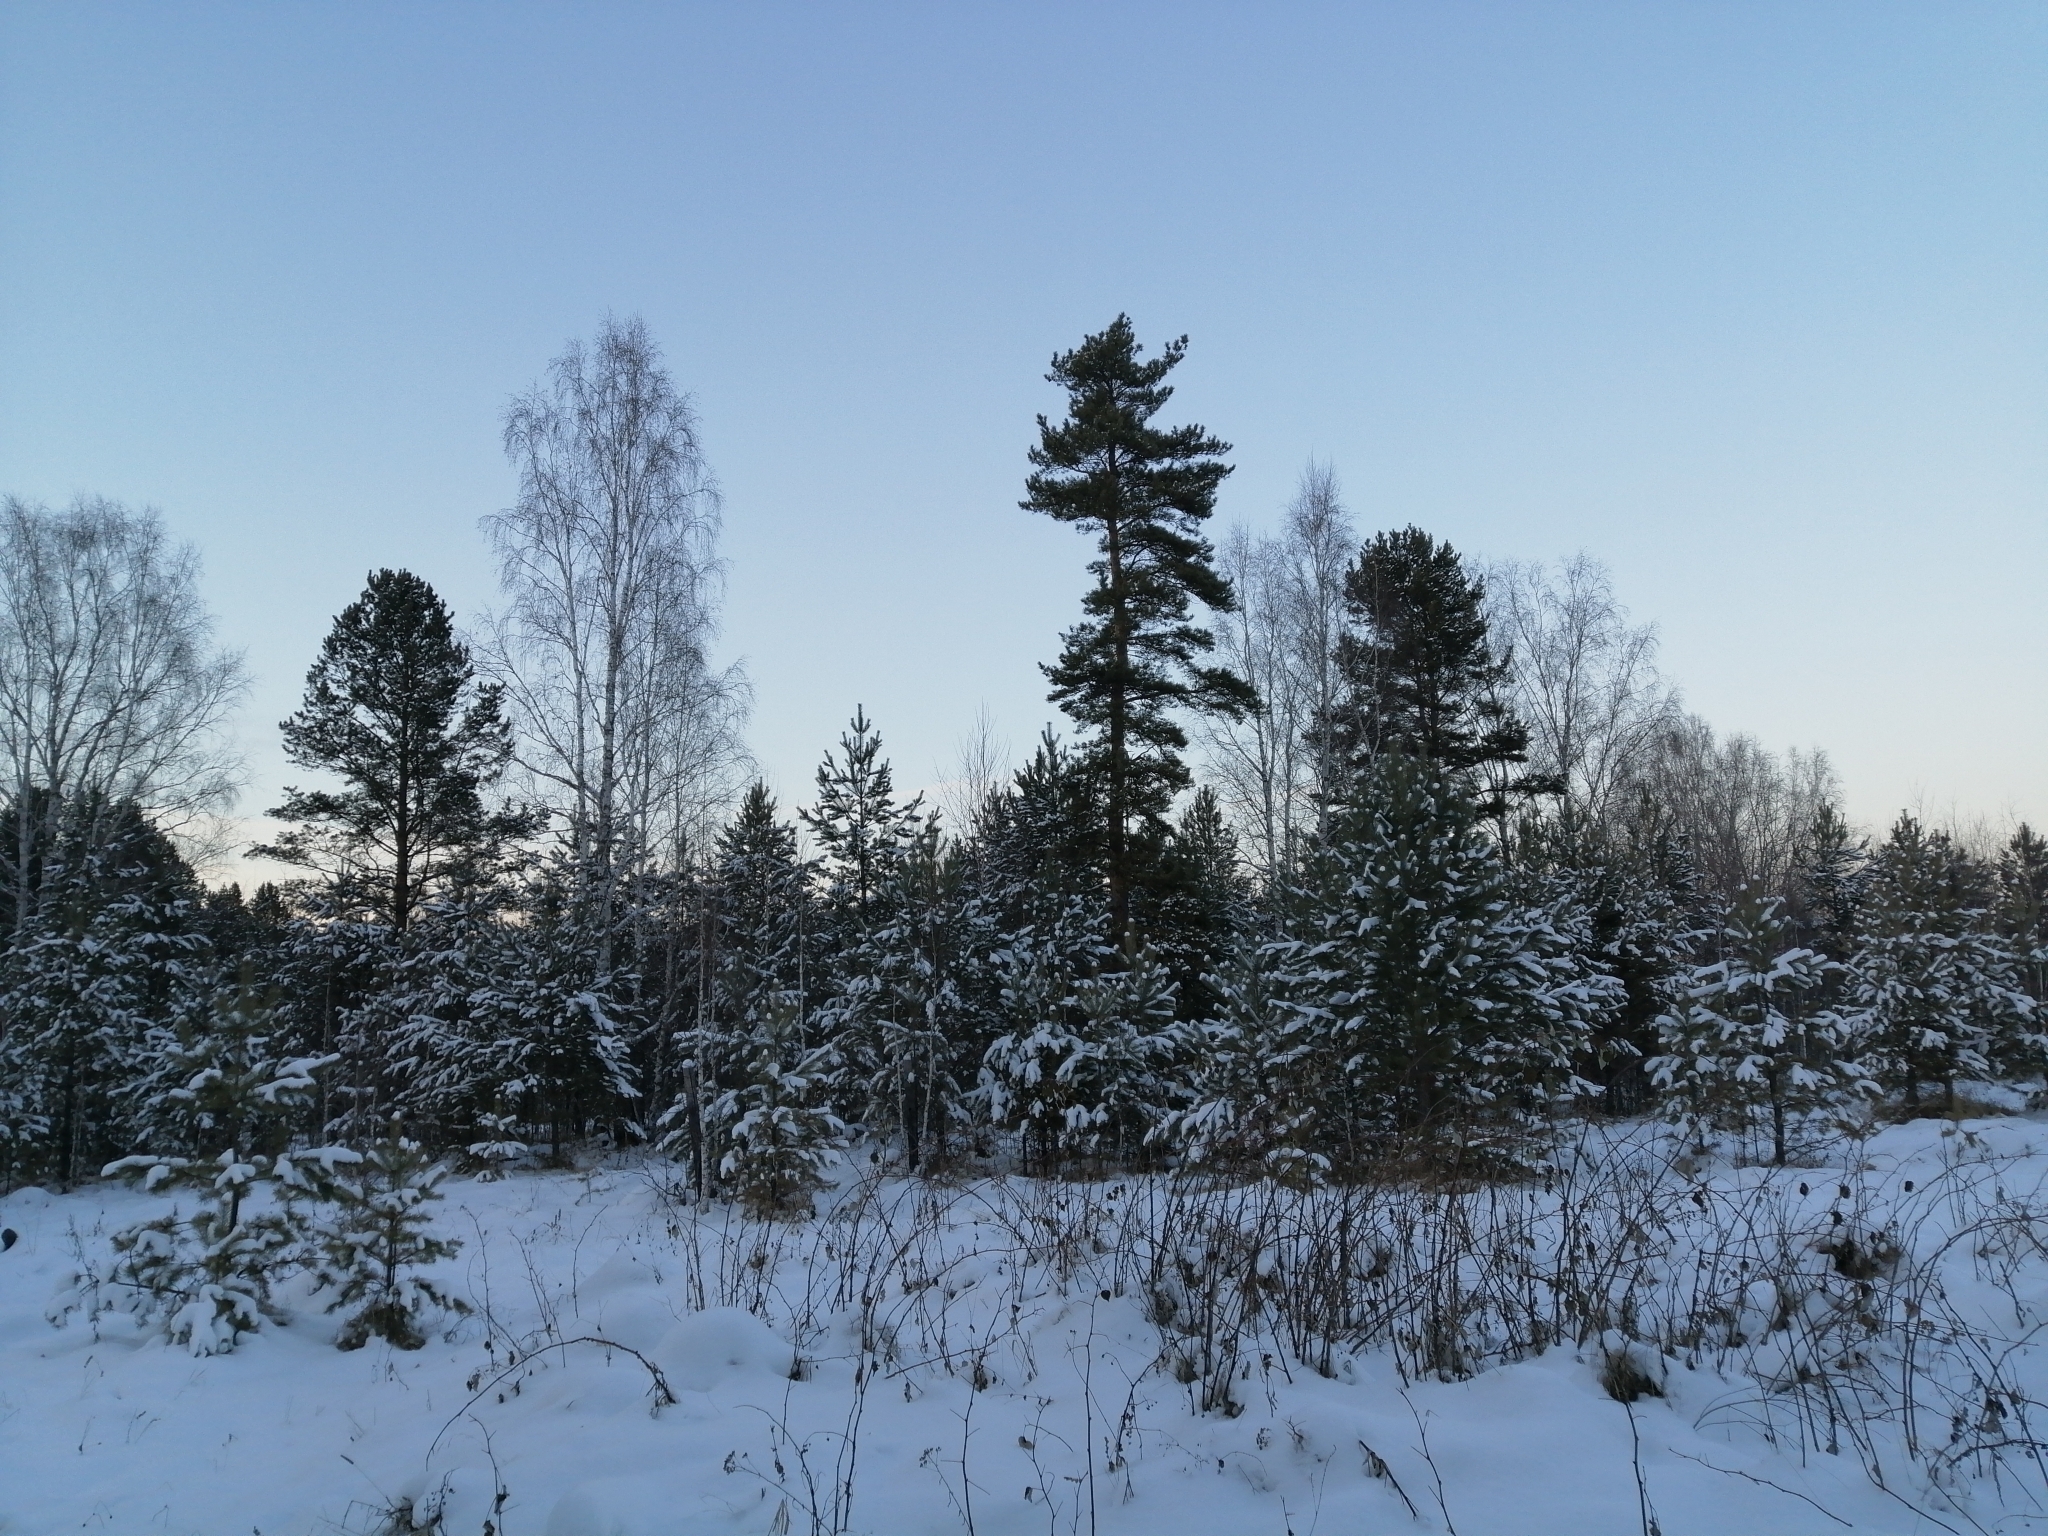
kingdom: Plantae
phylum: Tracheophyta
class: Pinopsida
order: Pinales
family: Pinaceae
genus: Pinus
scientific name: Pinus sylvestris
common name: Scots pine
